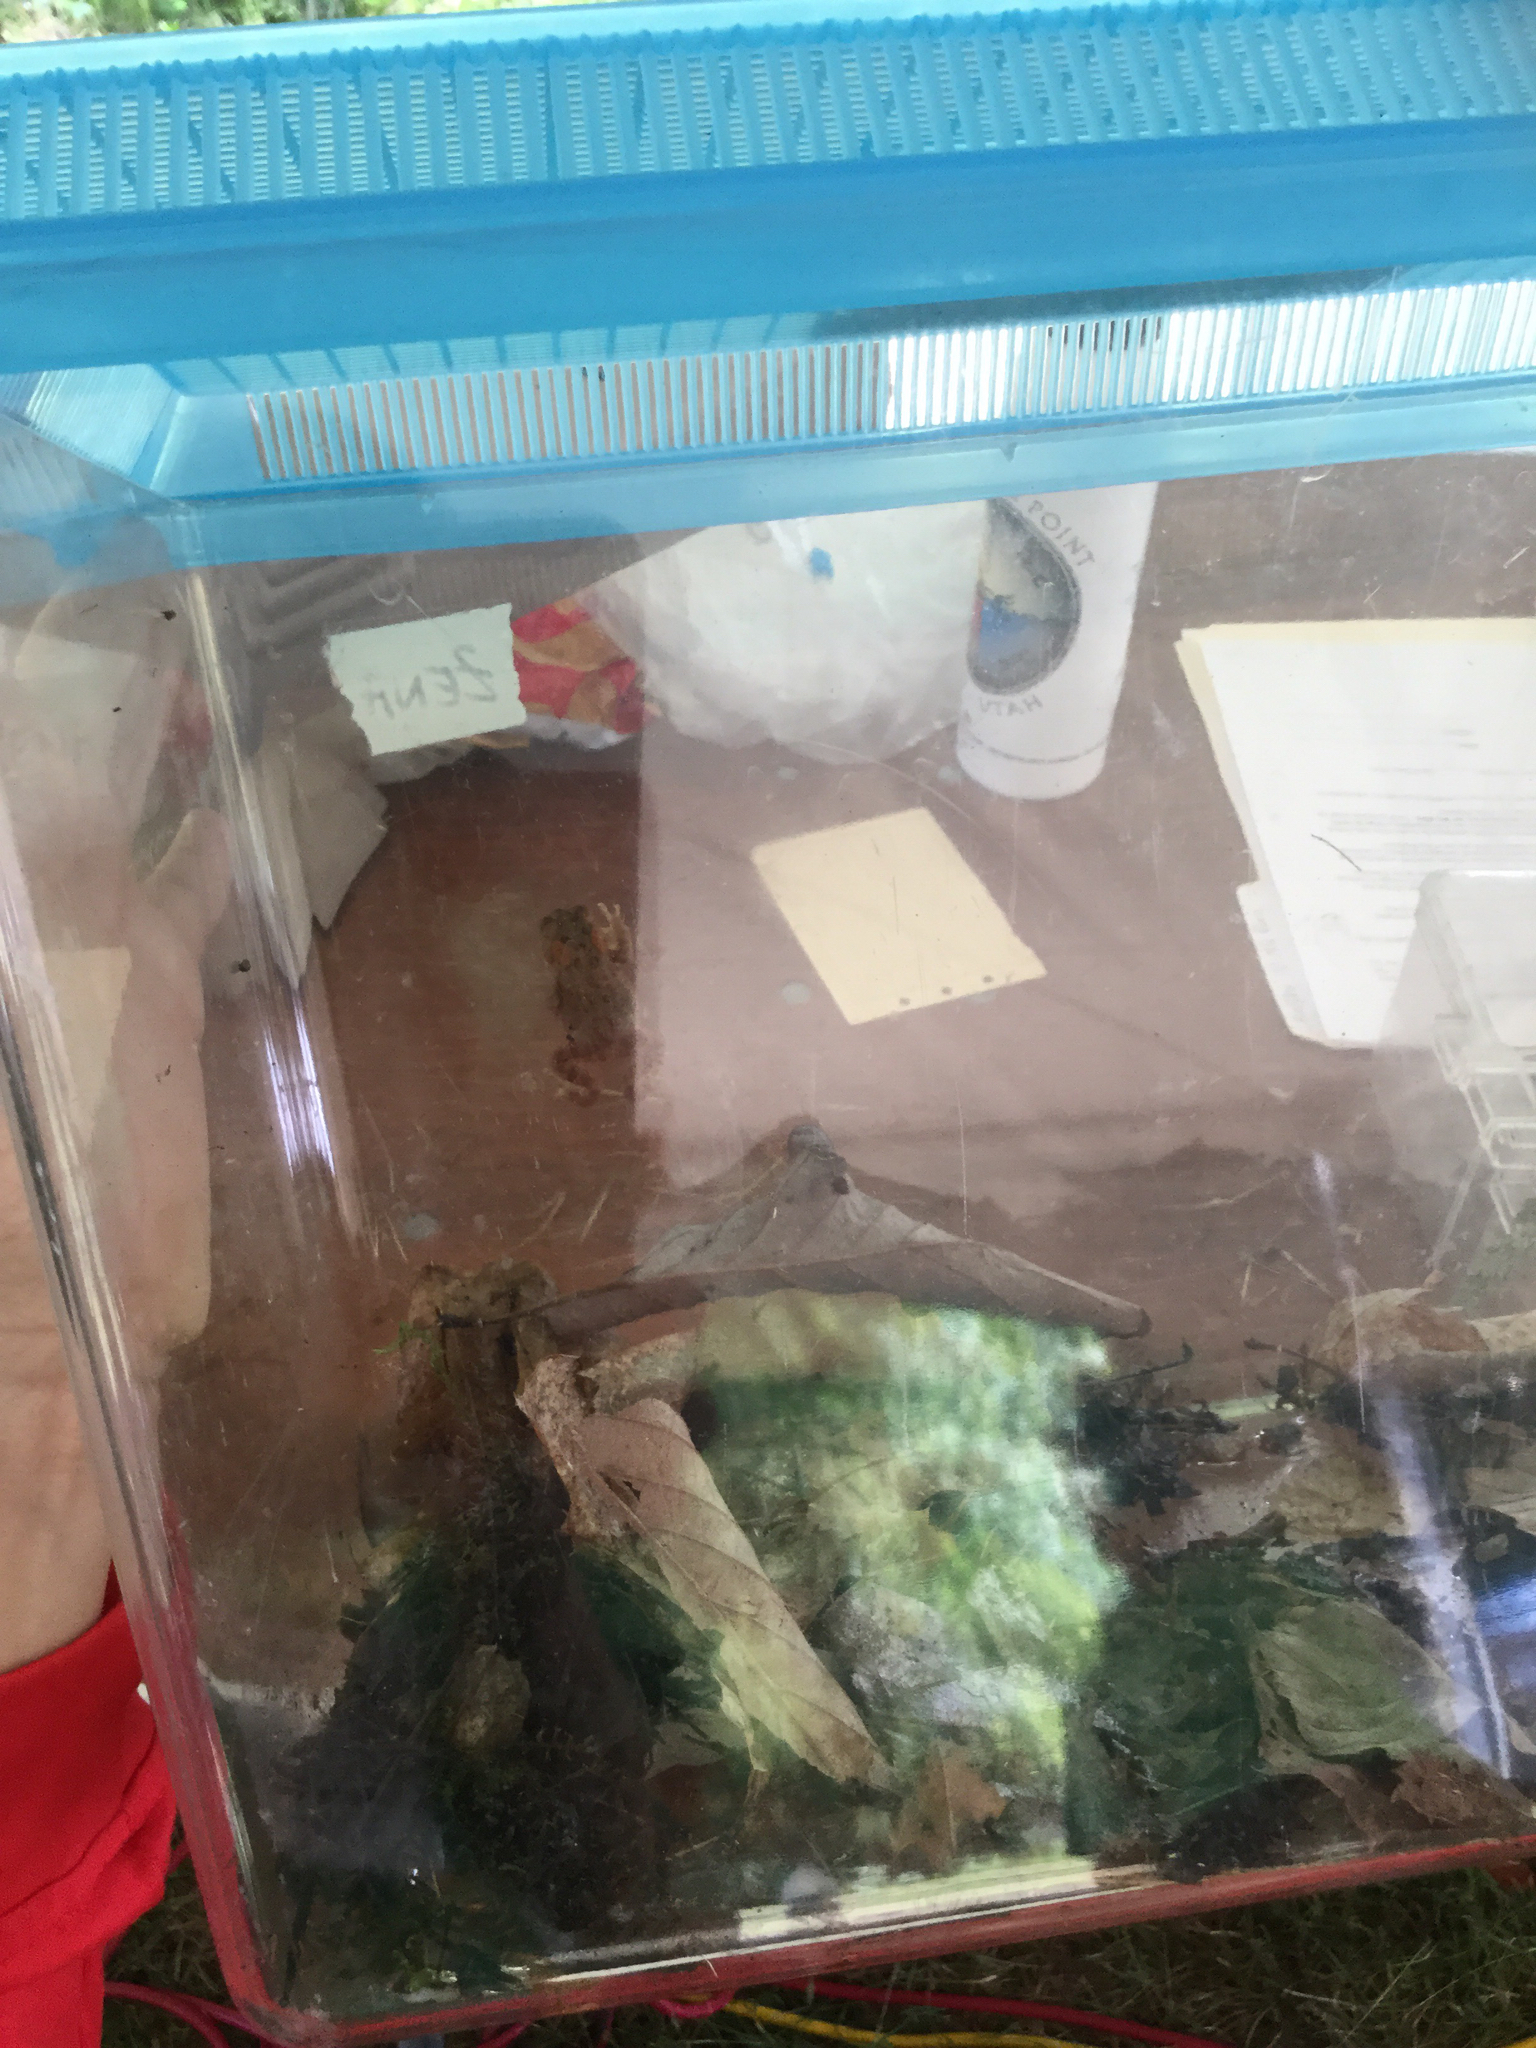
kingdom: Animalia
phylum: Chordata
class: Amphibia
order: Anura
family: Bufonidae
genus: Anaxyrus
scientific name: Anaxyrus americanus
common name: American toad
